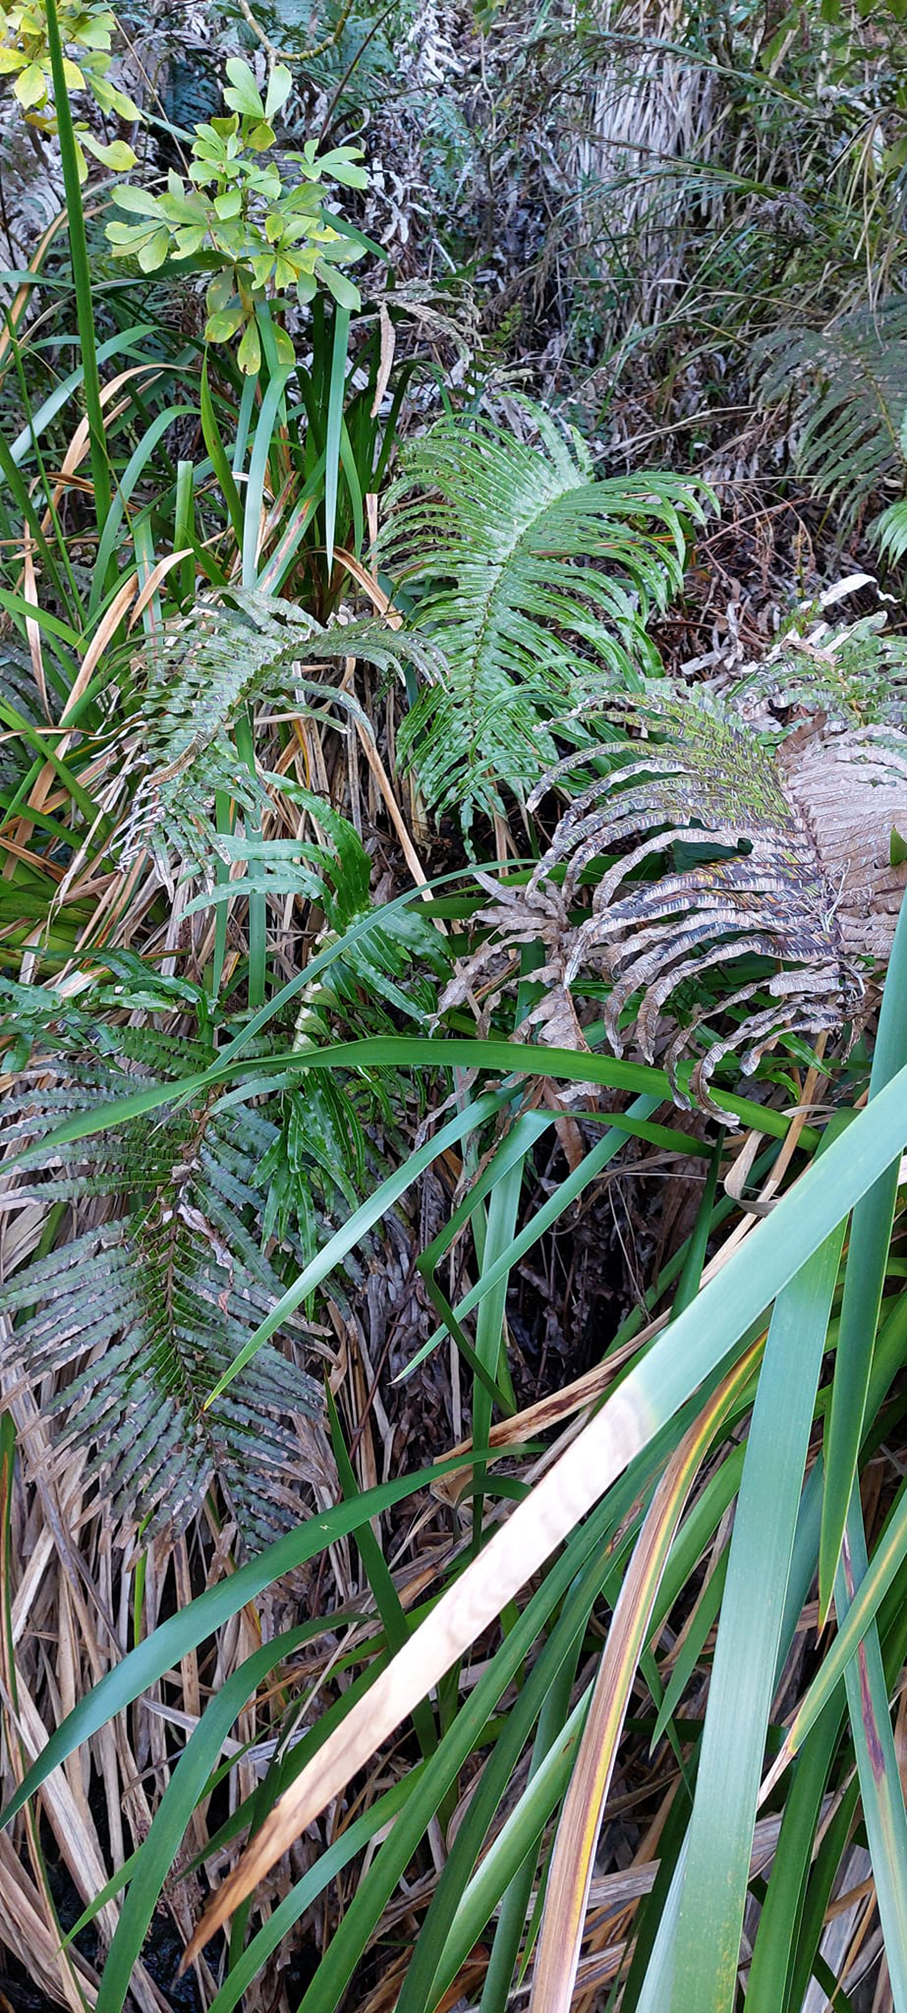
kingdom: Plantae
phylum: Tracheophyta
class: Polypodiopsida
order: Polypodiales
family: Blechnaceae
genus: Parablechnum
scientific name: Parablechnum novae-zelandiae
